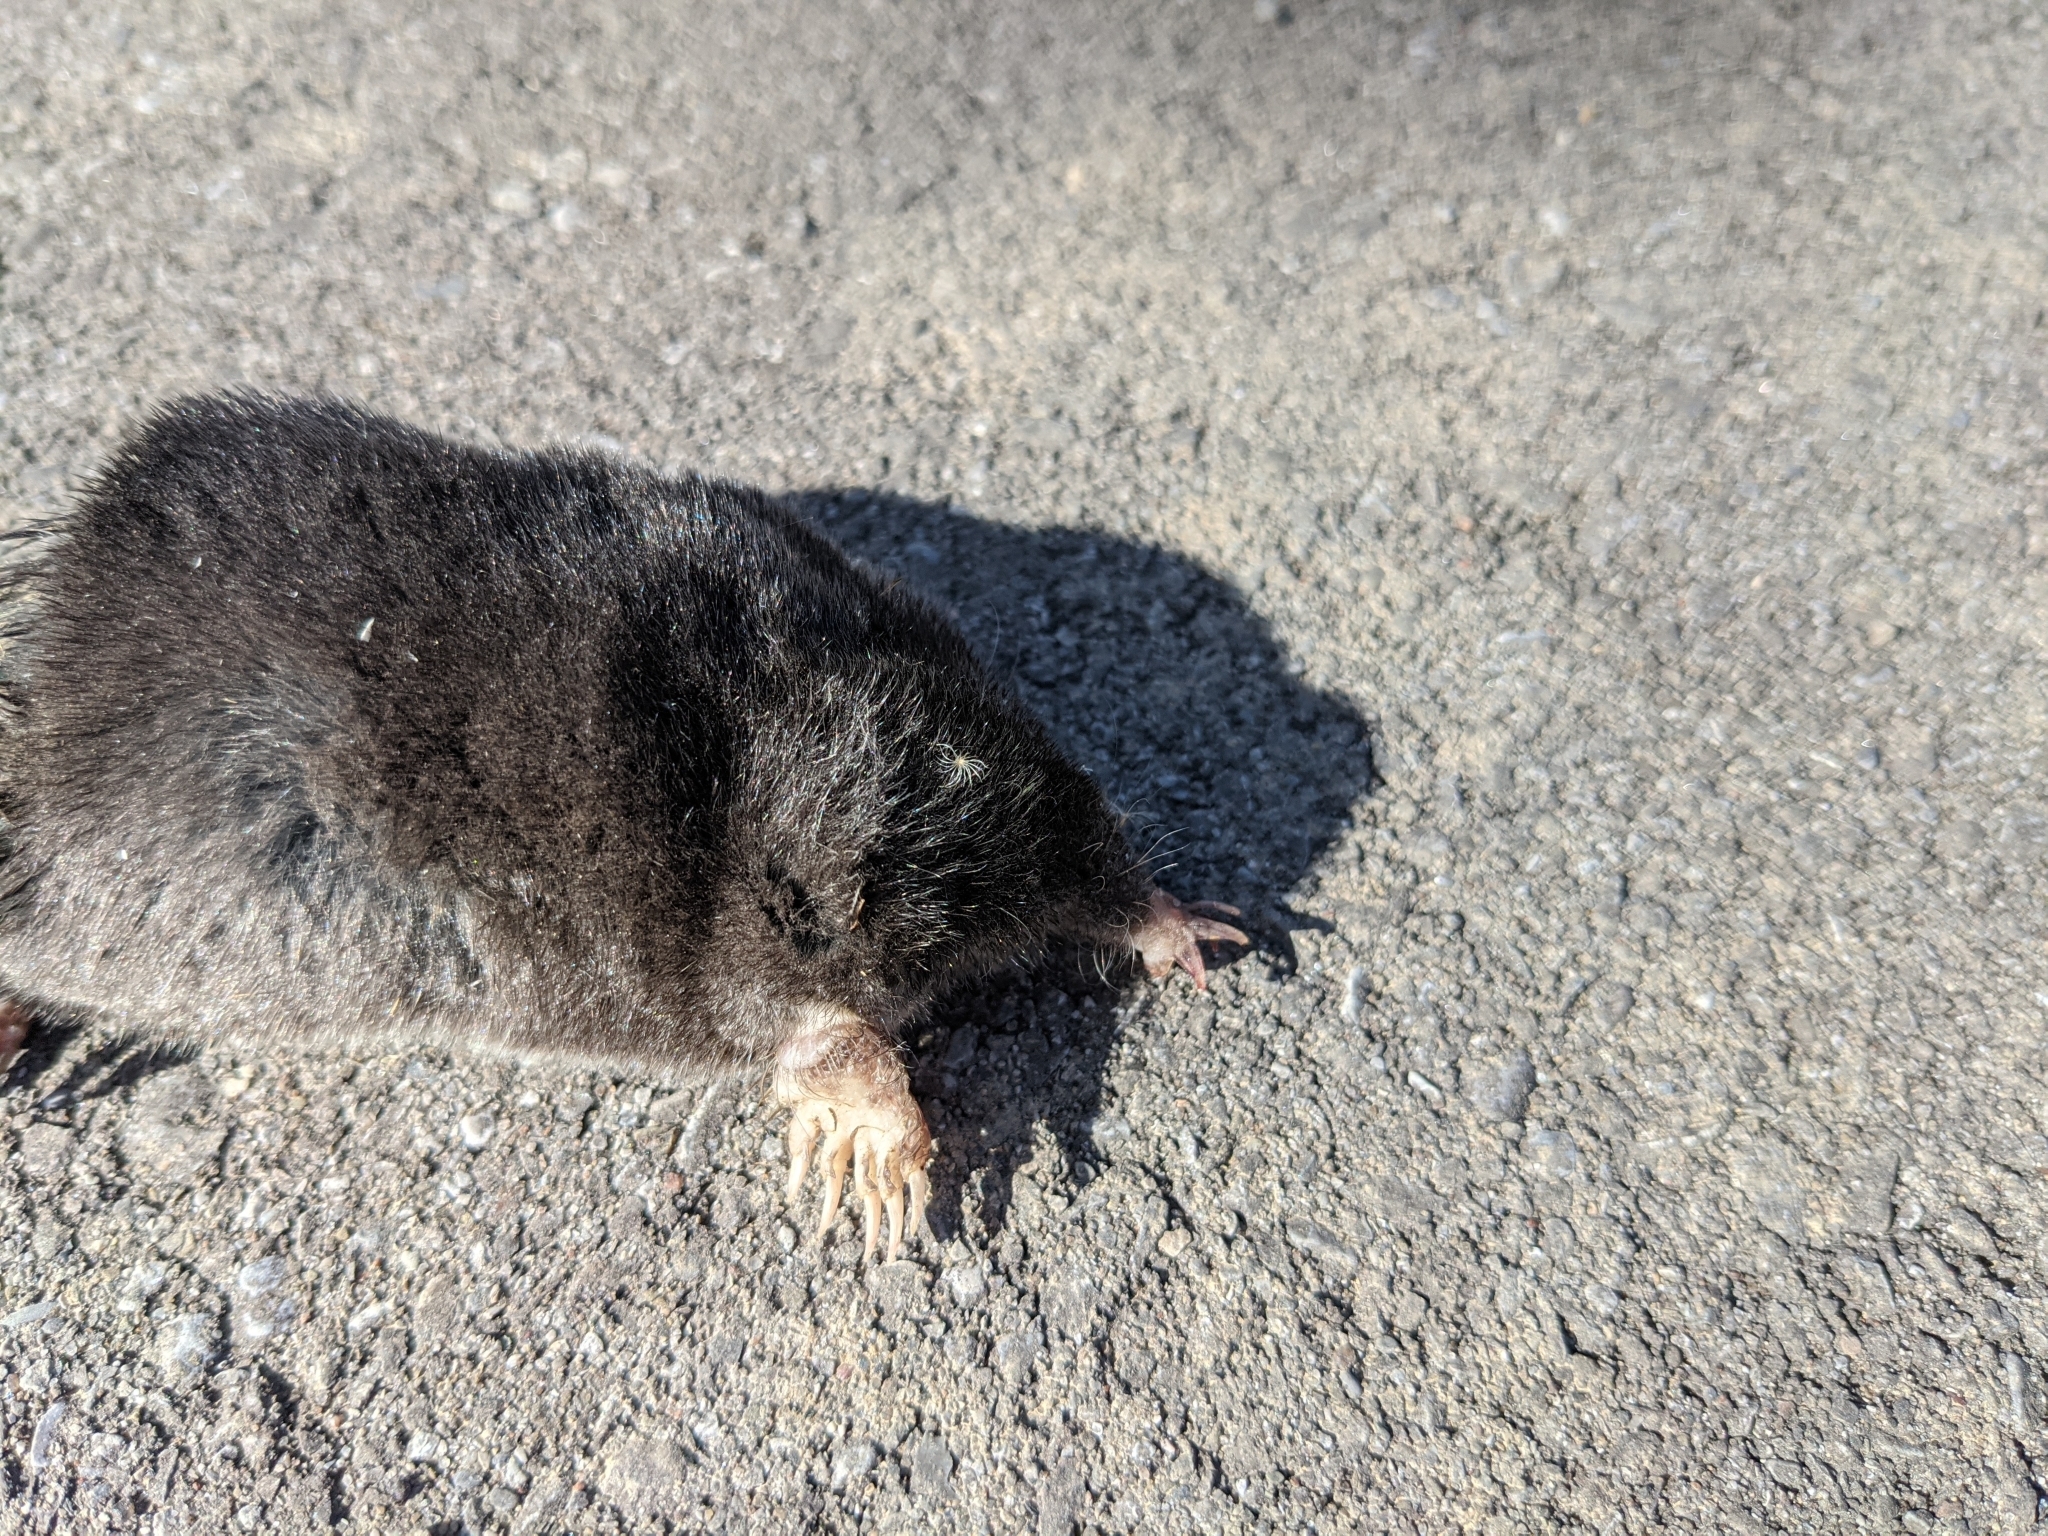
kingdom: Animalia
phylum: Chordata
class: Mammalia
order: Soricomorpha
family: Talpidae
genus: Condylura
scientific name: Condylura cristata
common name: Star-nosed mole
